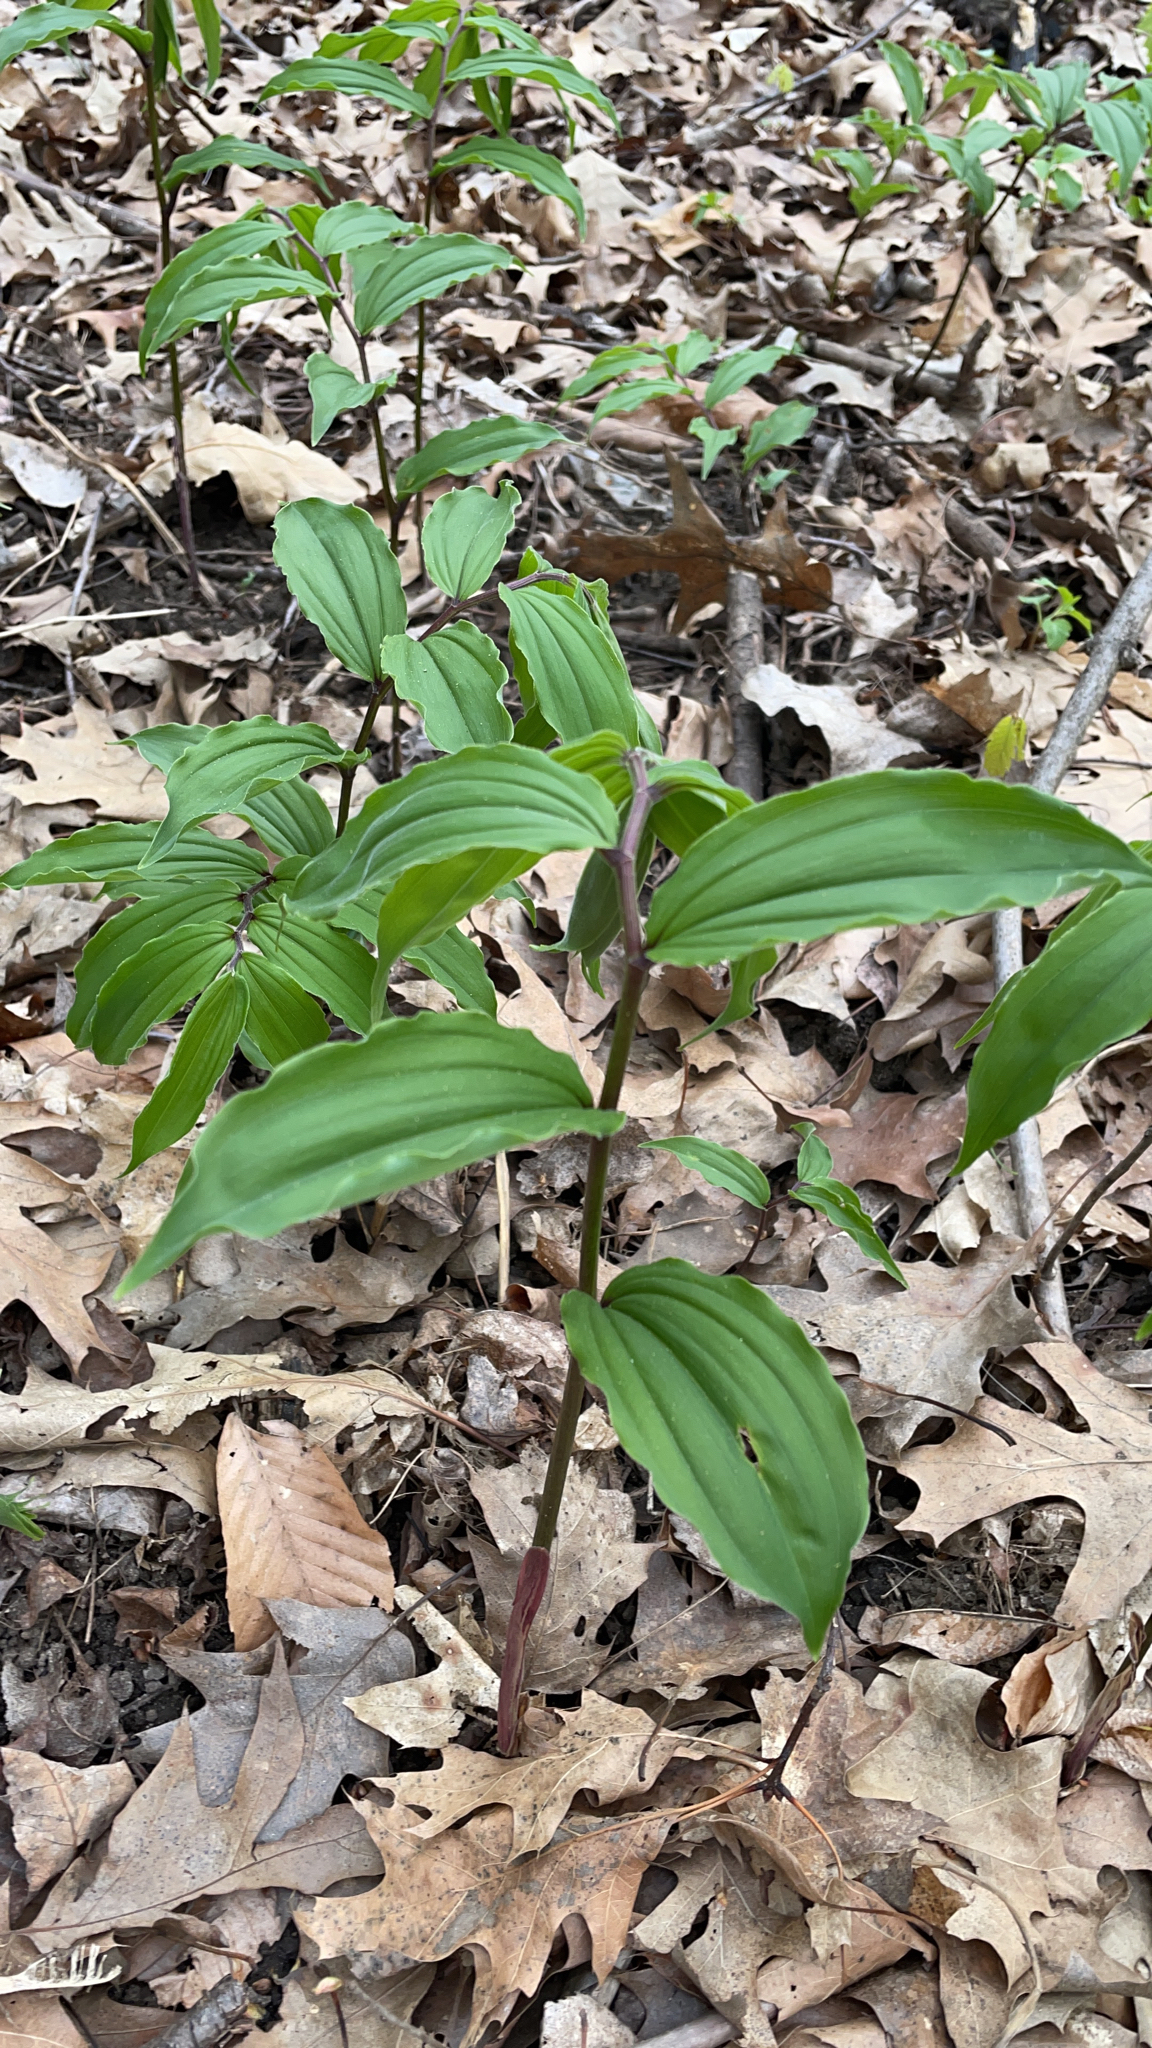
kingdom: Plantae
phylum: Tracheophyta
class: Liliopsida
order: Asparagales
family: Asparagaceae
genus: Maianthemum
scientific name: Maianthemum racemosum
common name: False spikenard
